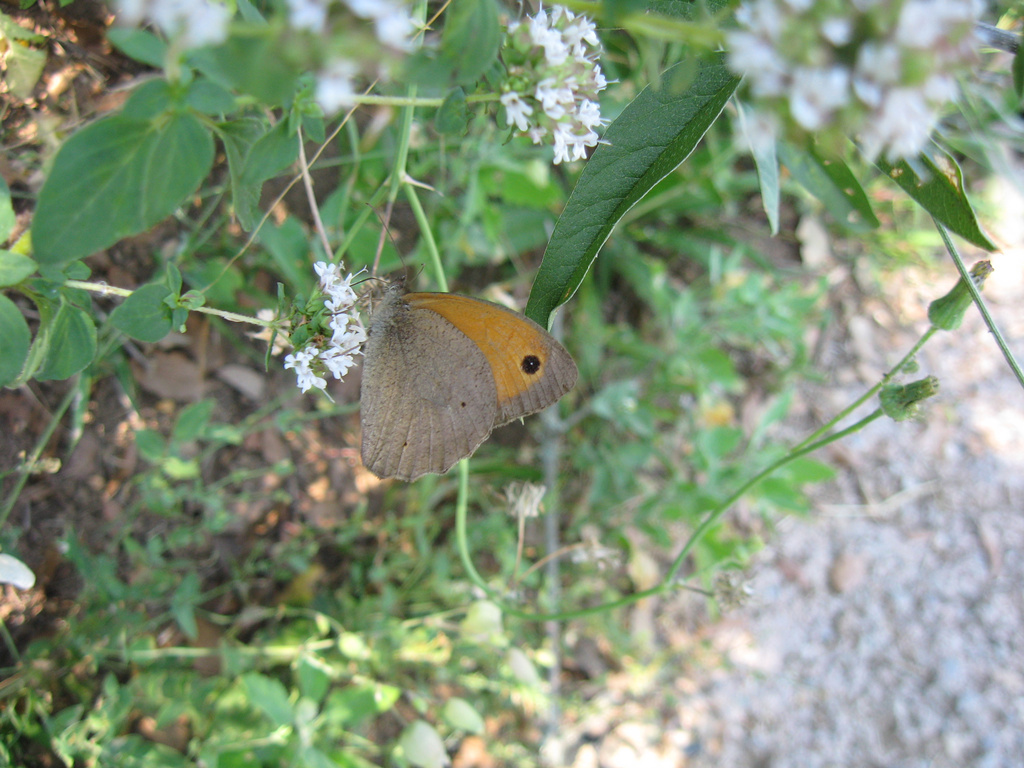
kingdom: Animalia
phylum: Arthropoda
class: Insecta
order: Lepidoptera
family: Nymphalidae
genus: Maniola
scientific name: Maniola jurtina
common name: Meadow brown
